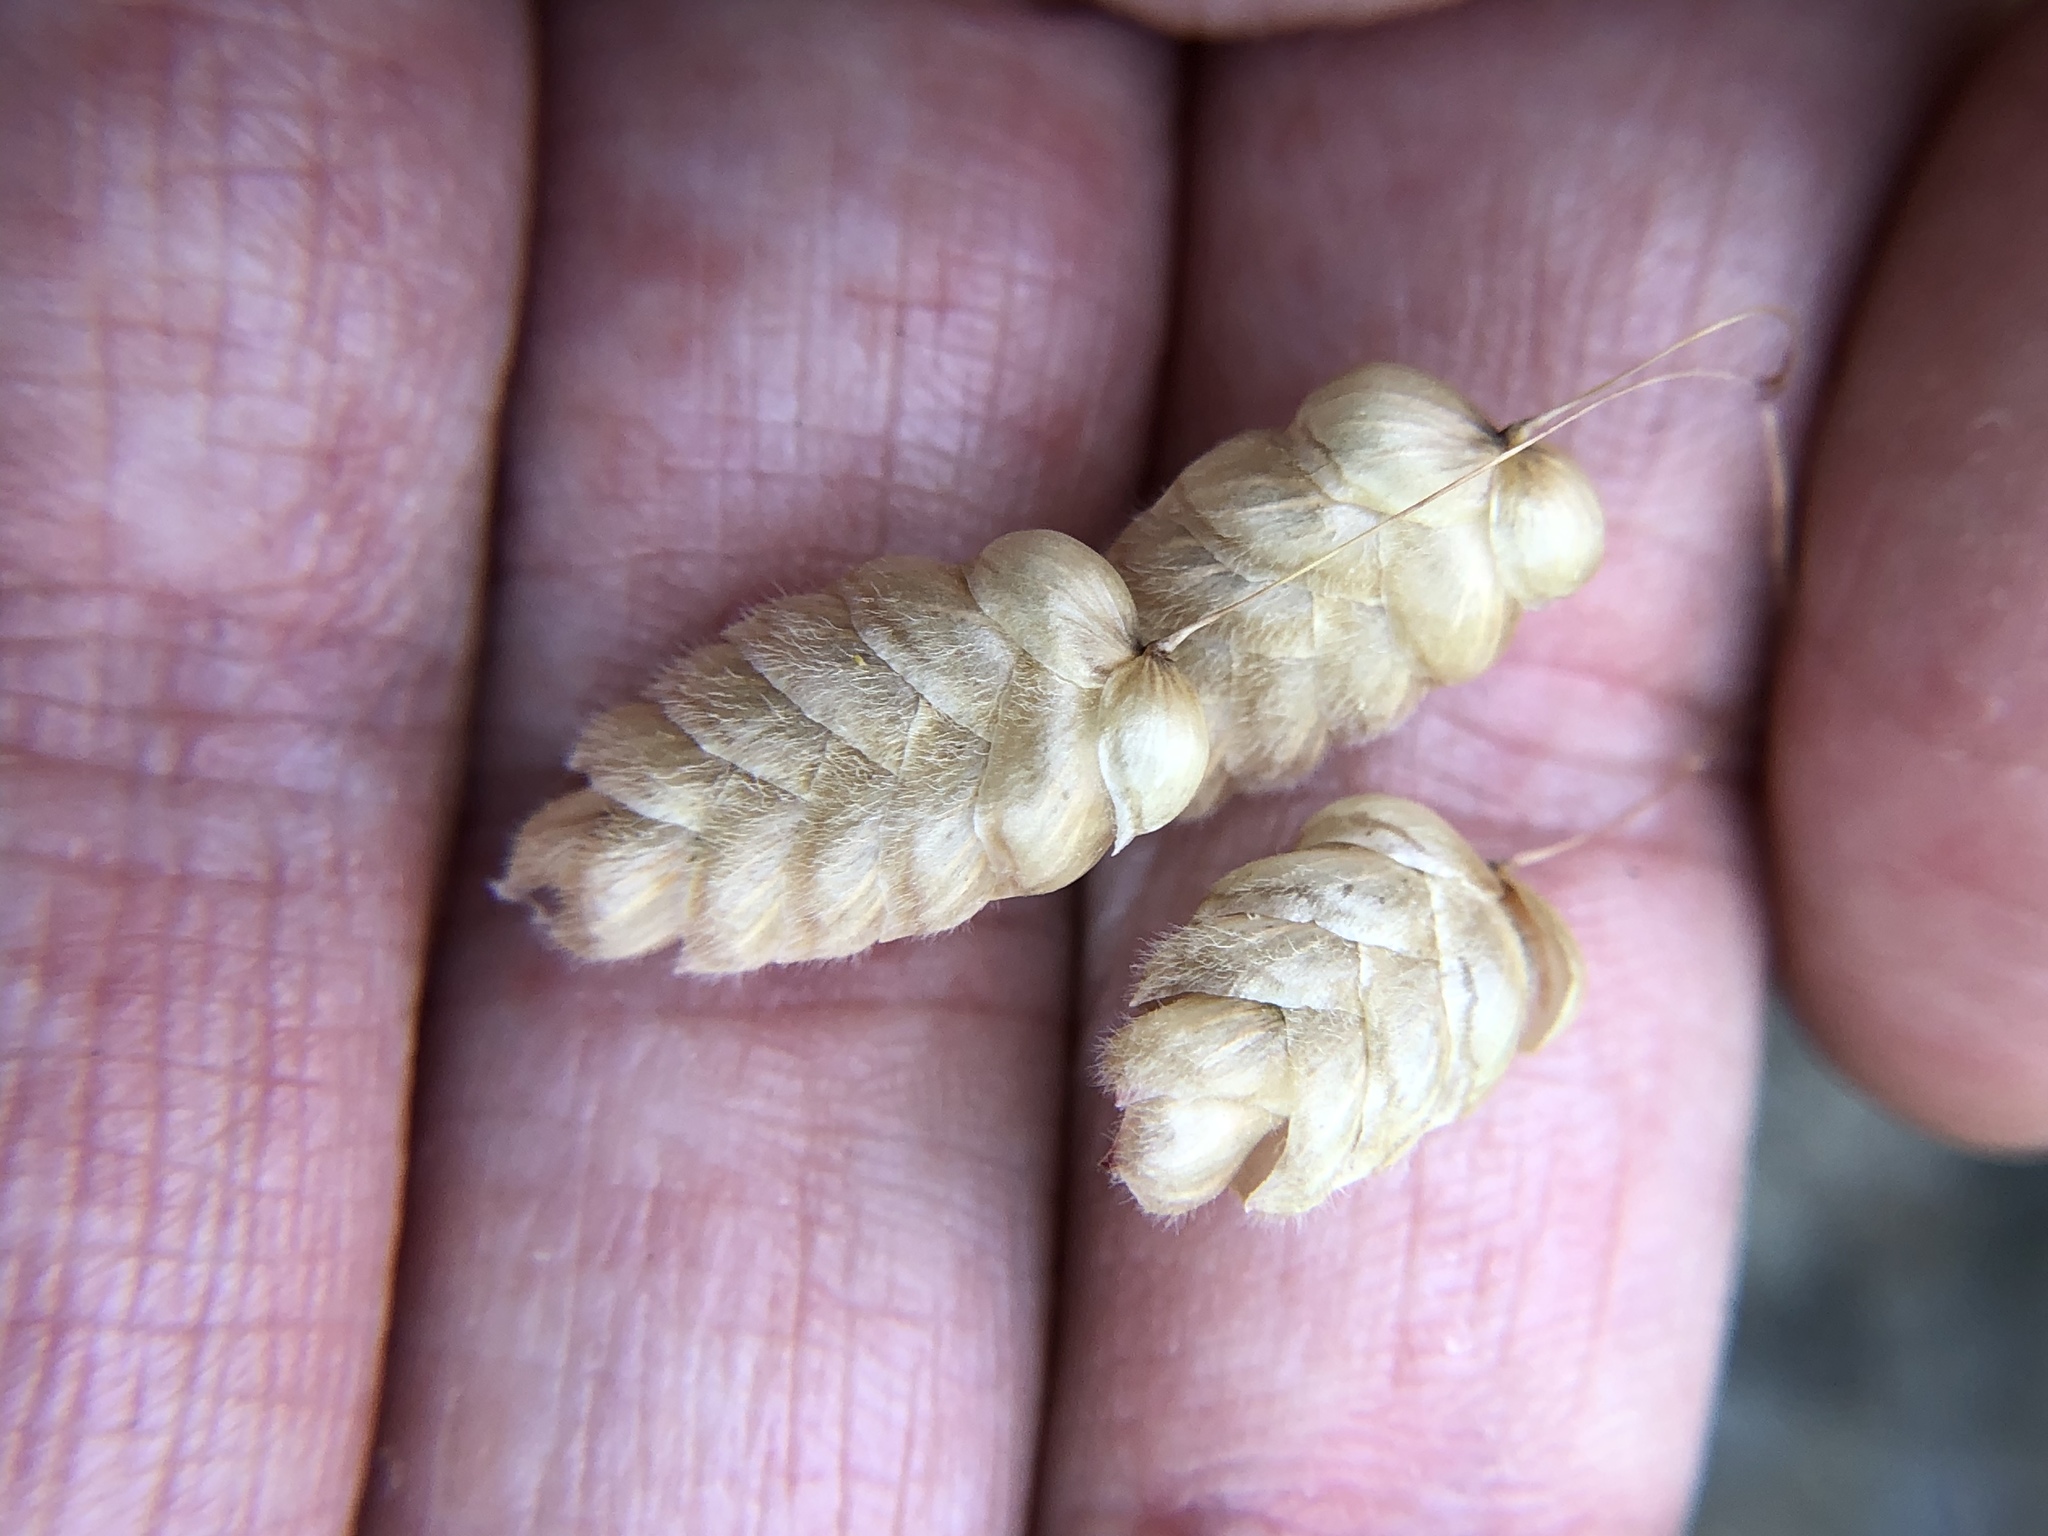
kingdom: Plantae
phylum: Tracheophyta
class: Liliopsida
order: Poales
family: Poaceae
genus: Briza
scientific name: Briza maxima
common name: Big quakinggrass
